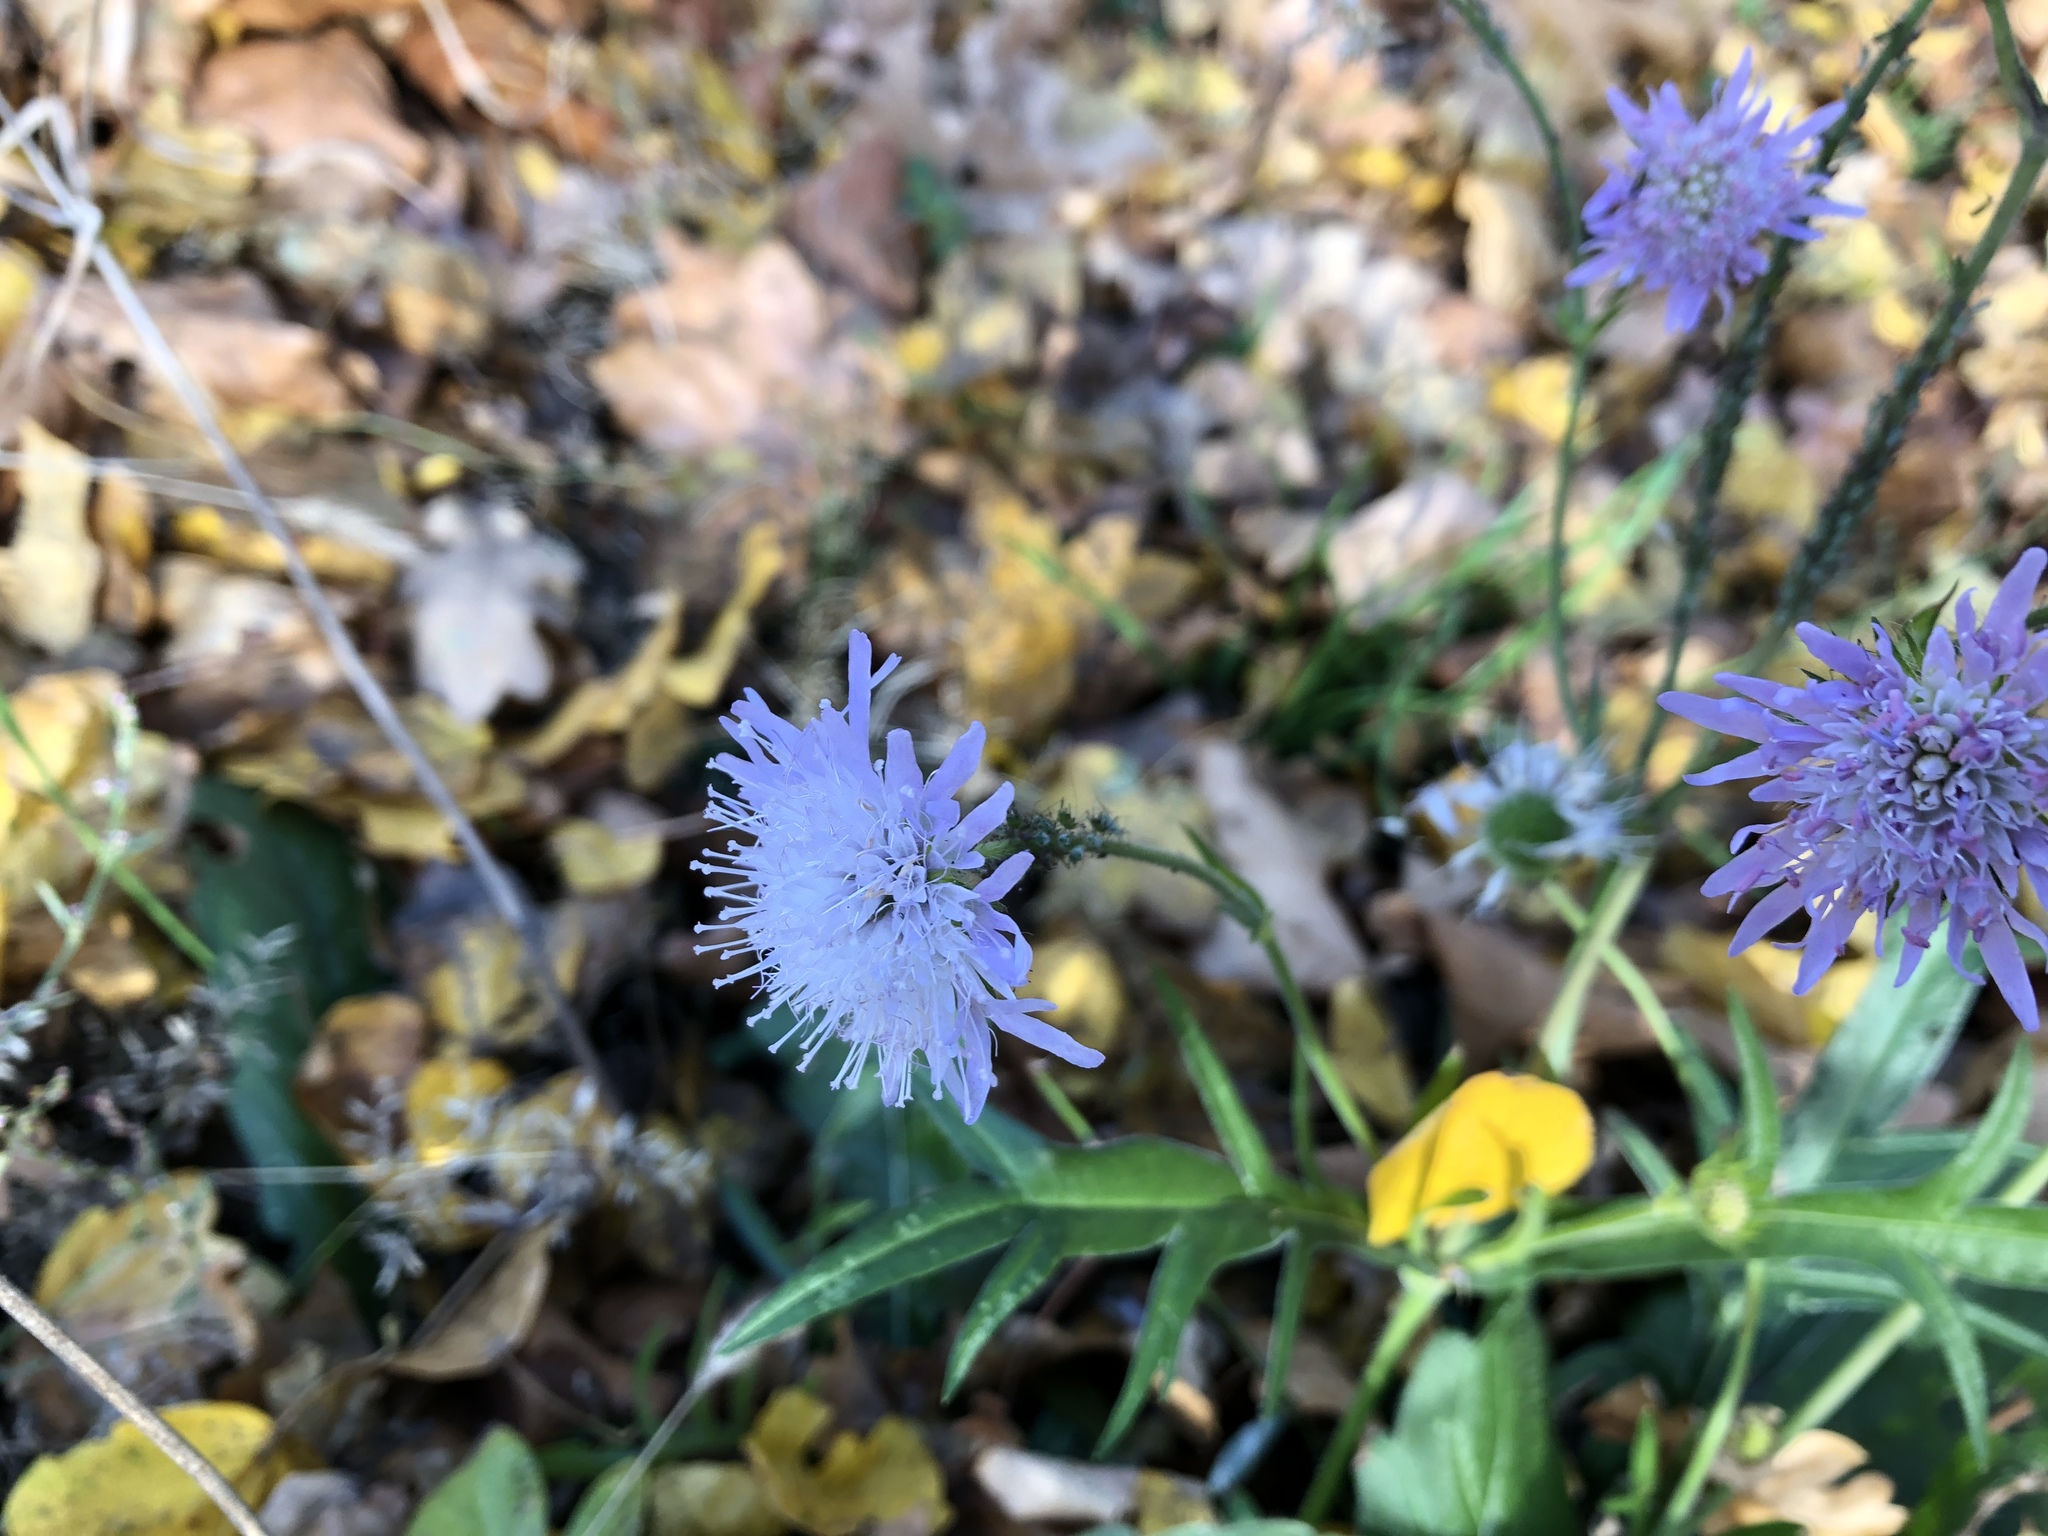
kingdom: Plantae
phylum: Tracheophyta
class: Magnoliopsida
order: Dipsacales
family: Caprifoliaceae
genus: Knautia
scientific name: Knautia arvensis
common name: Field scabiosa
